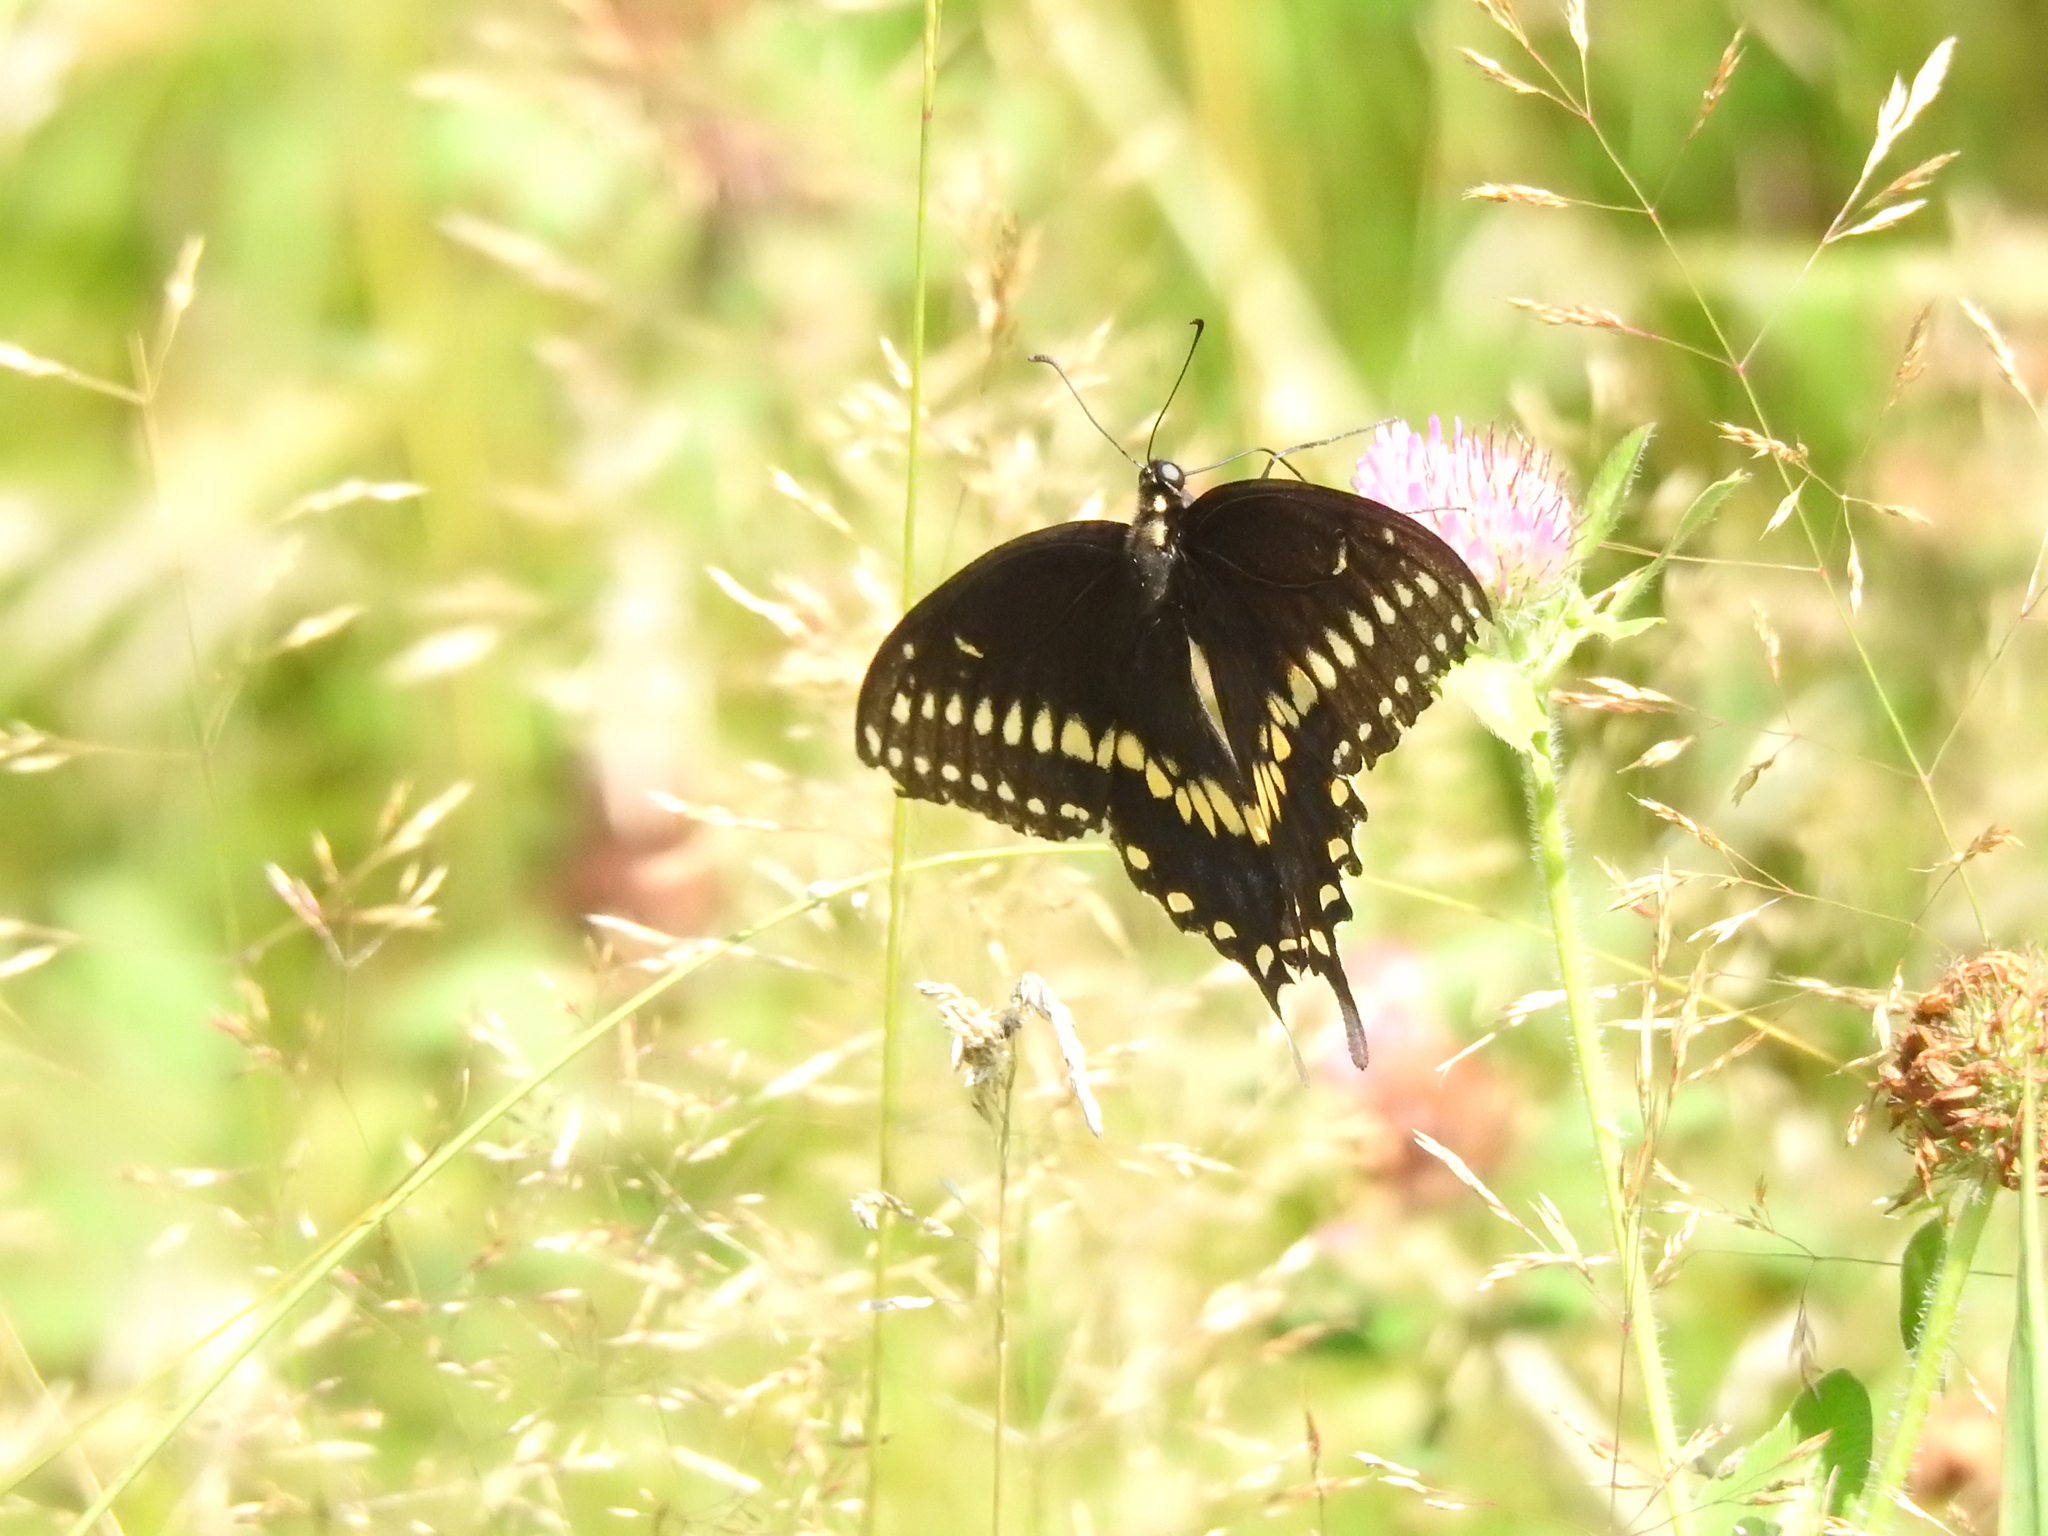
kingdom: Animalia
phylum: Arthropoda
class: Insecta
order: Lepidoptera
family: Papilionidae
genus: Papilio
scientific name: Papilio polyxenes
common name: Black swallowtail
